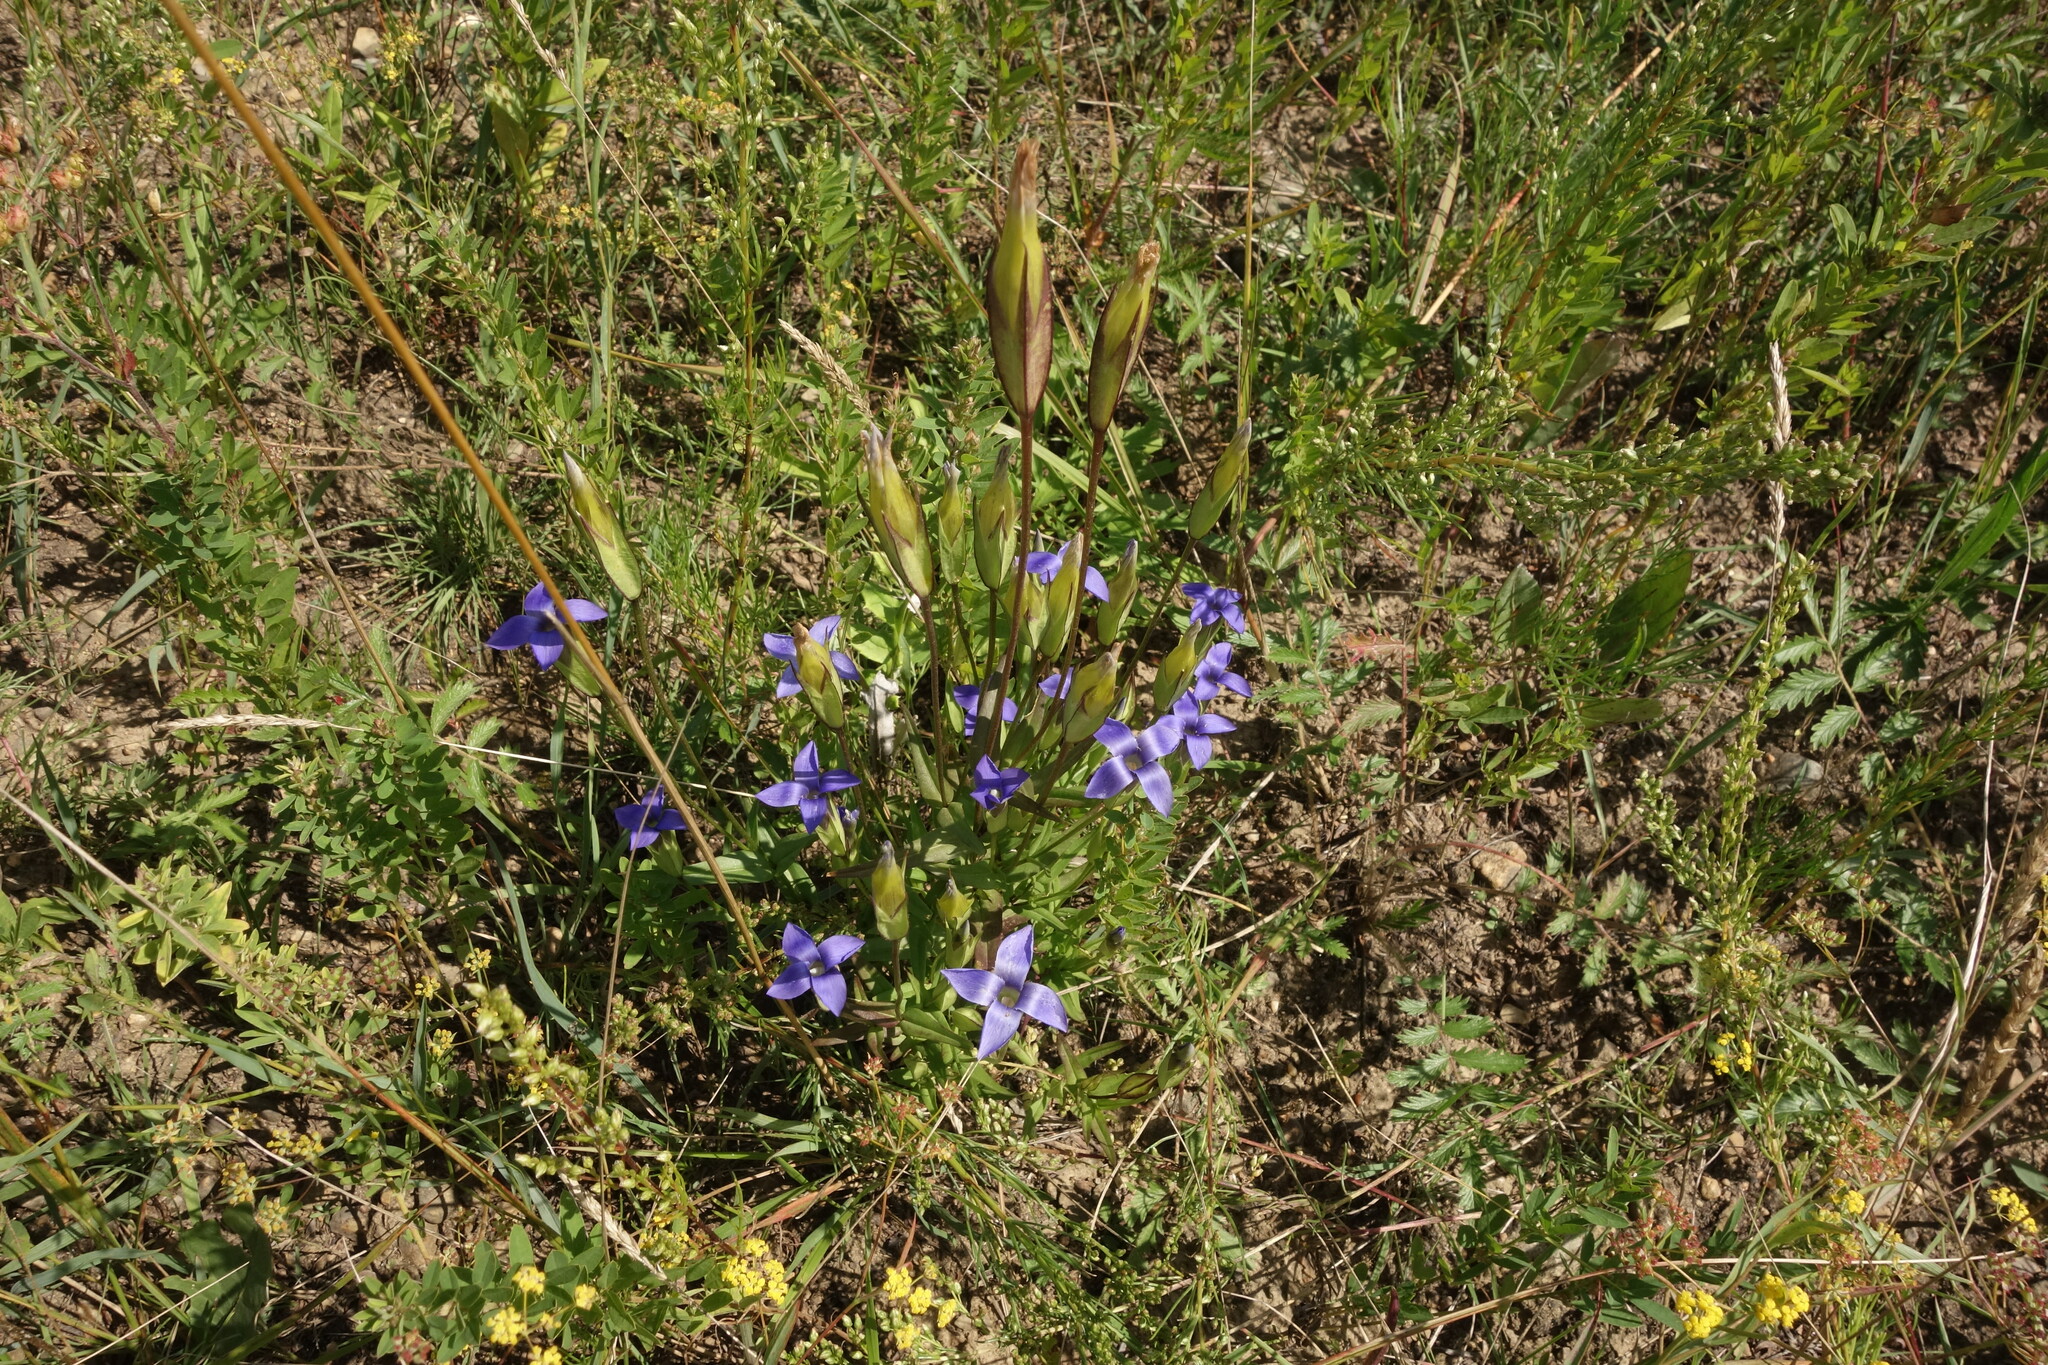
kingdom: Plantae
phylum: Tracheophyta
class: Magnoliopsida
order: Gentianales
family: Gentianaceae
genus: Gentianopsis
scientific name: Gentianopsis barbata
